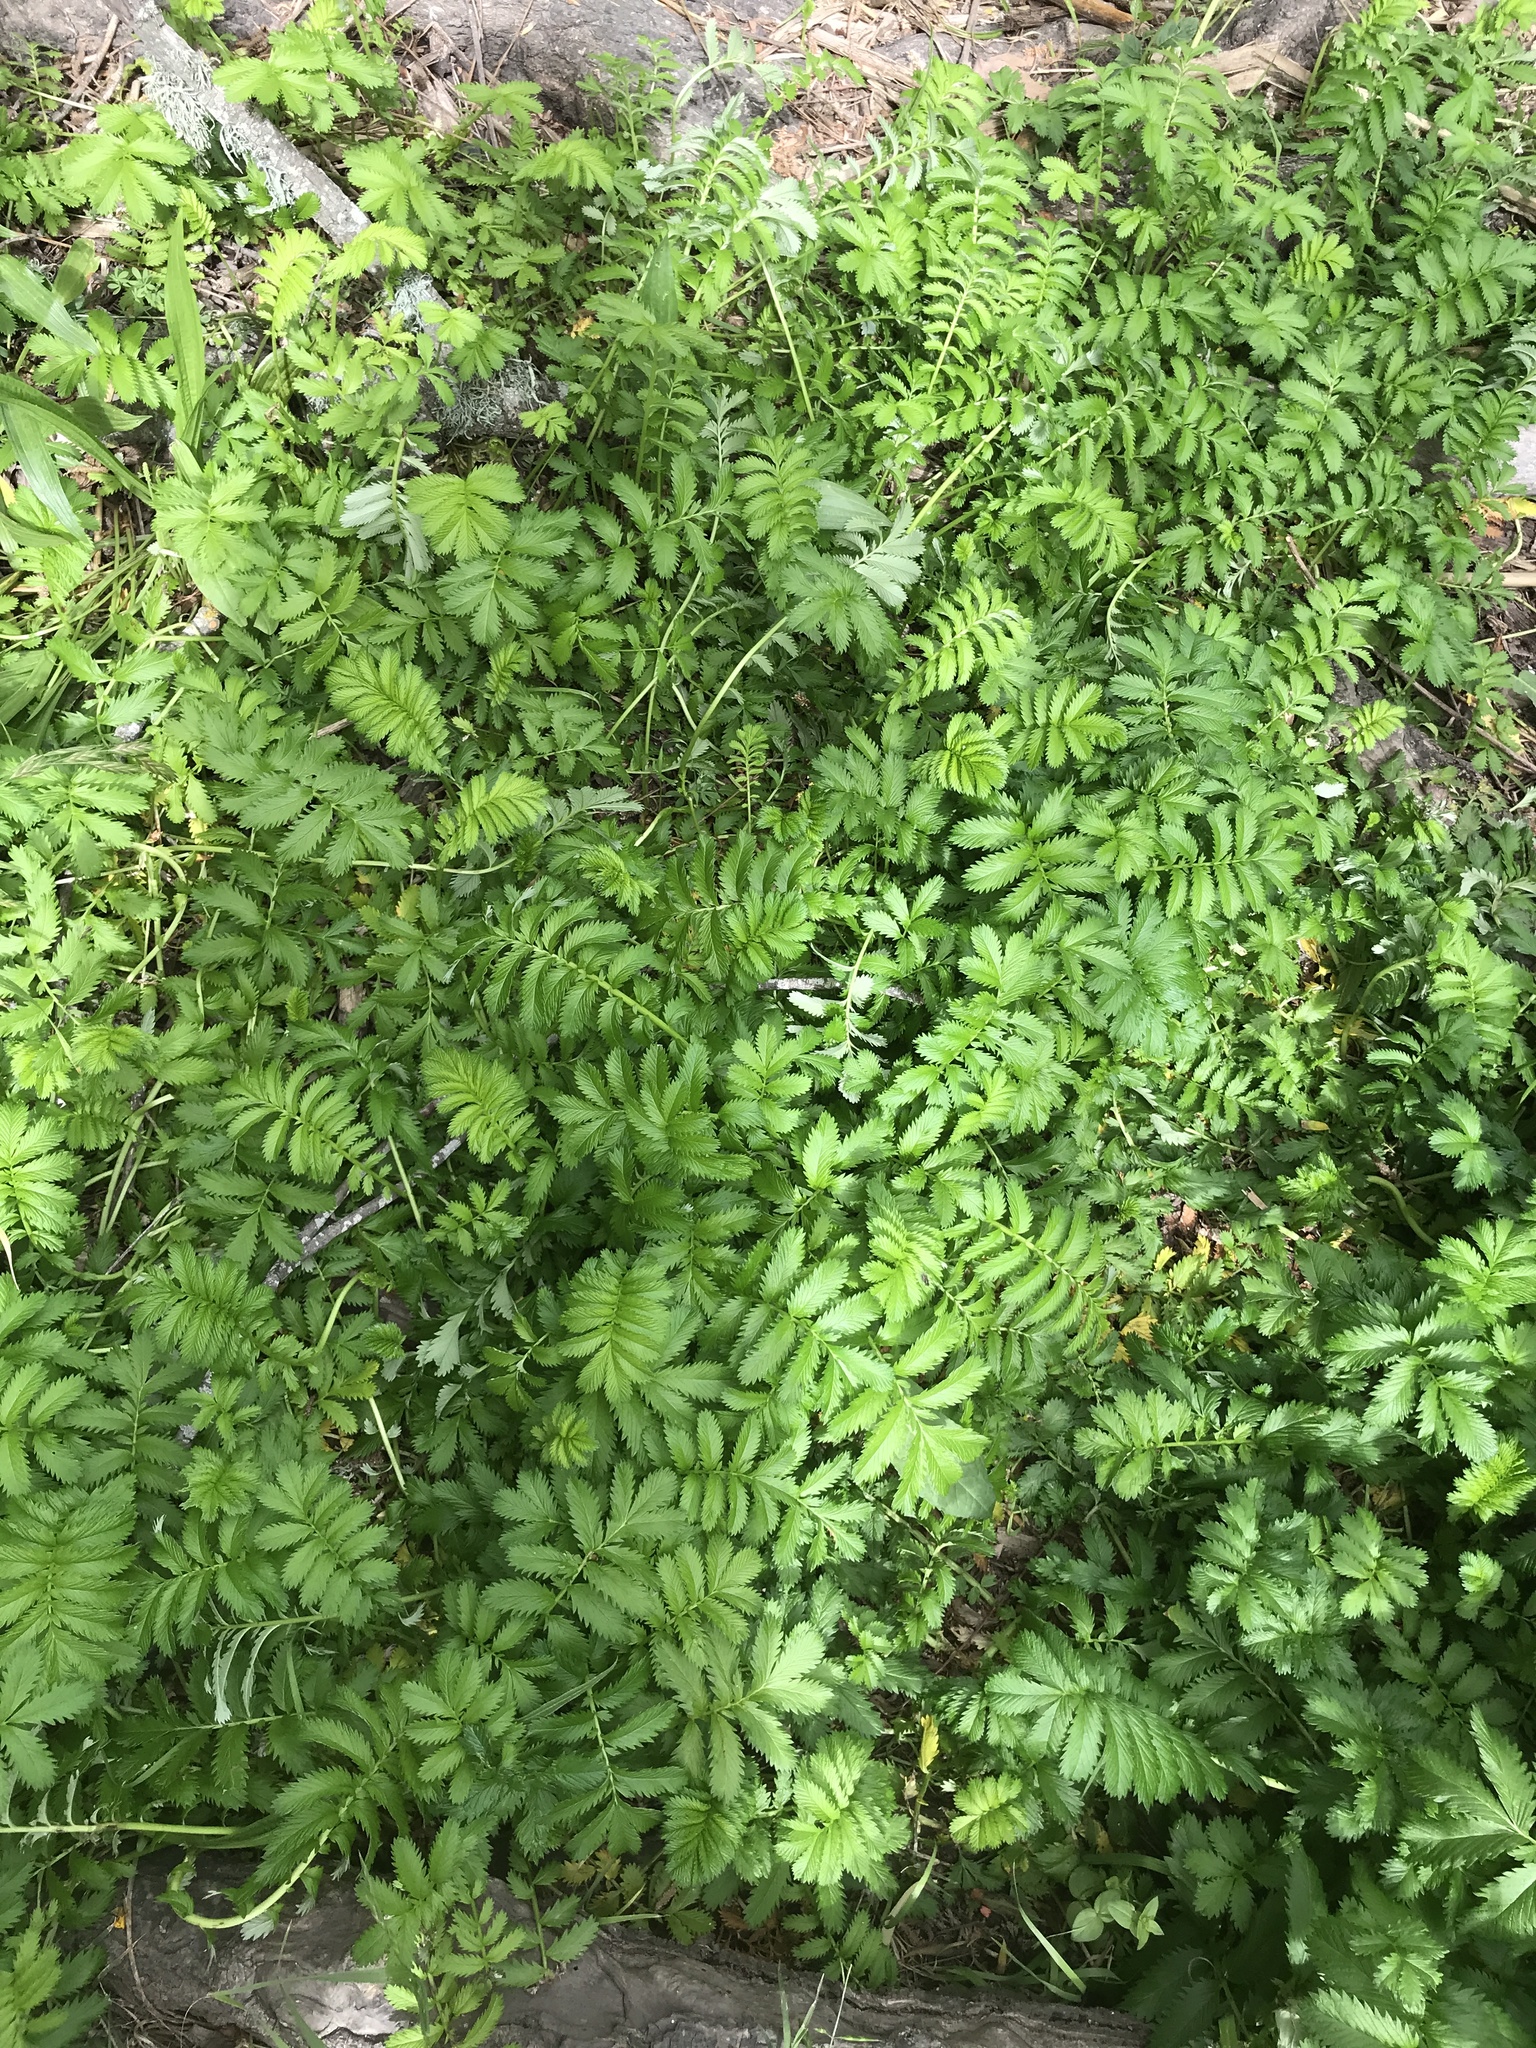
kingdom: Plantae
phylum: Tracheophyta
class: Magnoliopsida
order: Rosales
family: Rosaceae
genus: Argentina
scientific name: Argentina anserina
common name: Common silverweed
